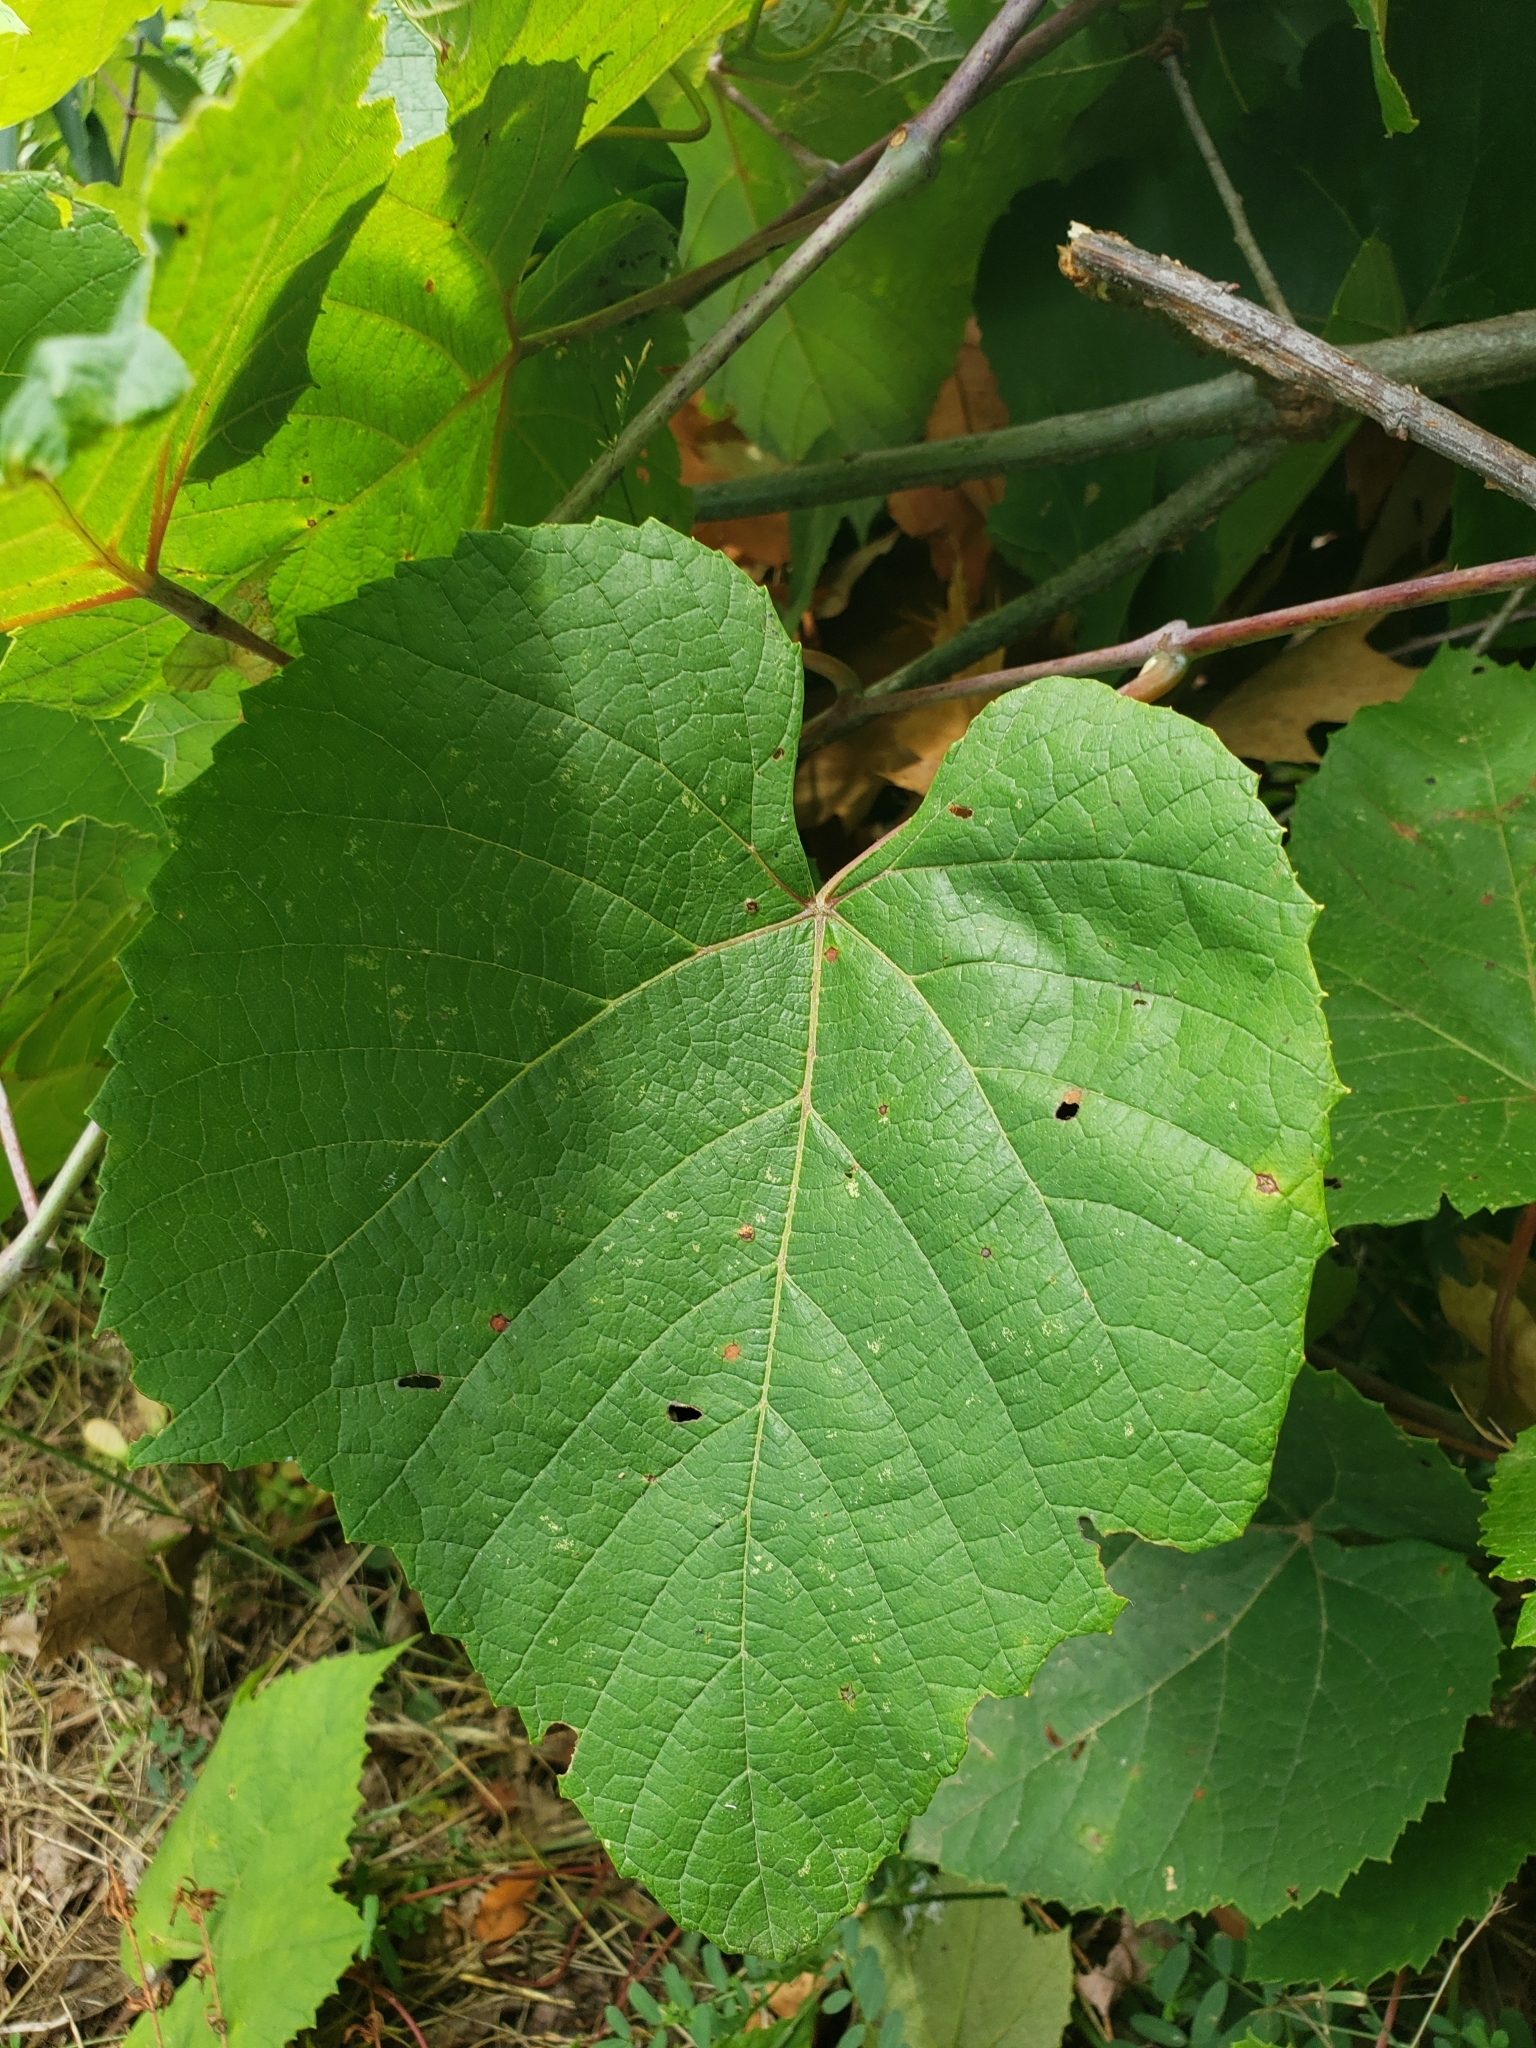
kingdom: Animalia
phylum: Arthropoda
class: Insecta
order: Diptera
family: Cecidomyiidae
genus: Ampelomyia
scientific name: Ampelomyia viticola
